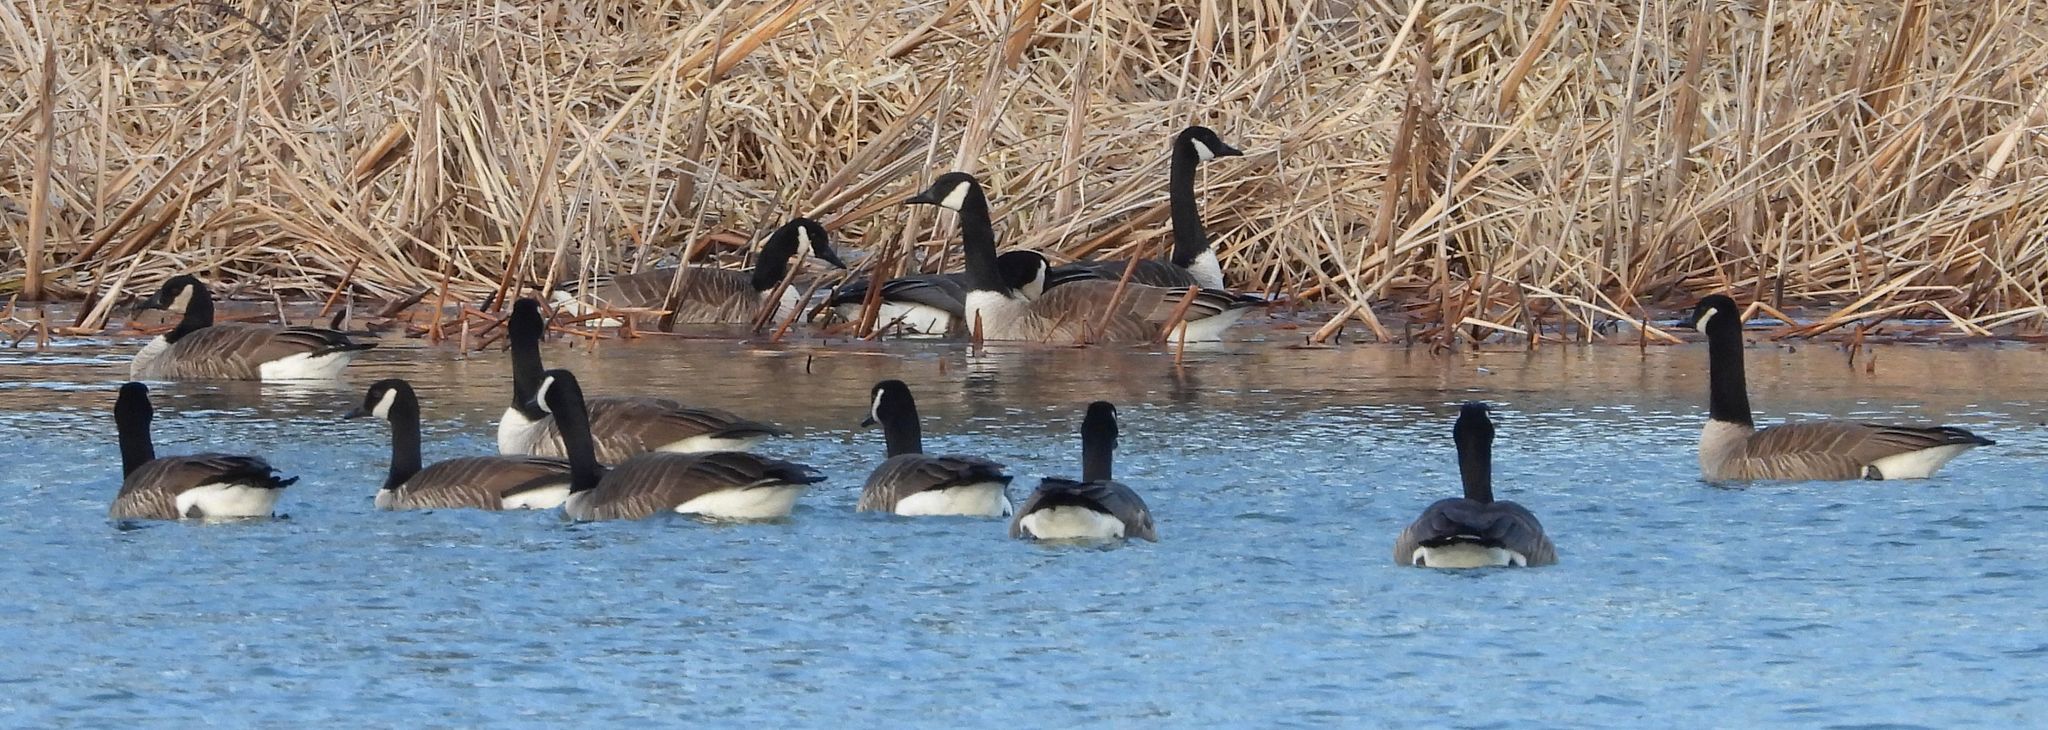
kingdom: Animalia
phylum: Chordata
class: Aves
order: Anseriformes
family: Anatidae
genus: Branta
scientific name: Branta canadensis
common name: Canada goose
